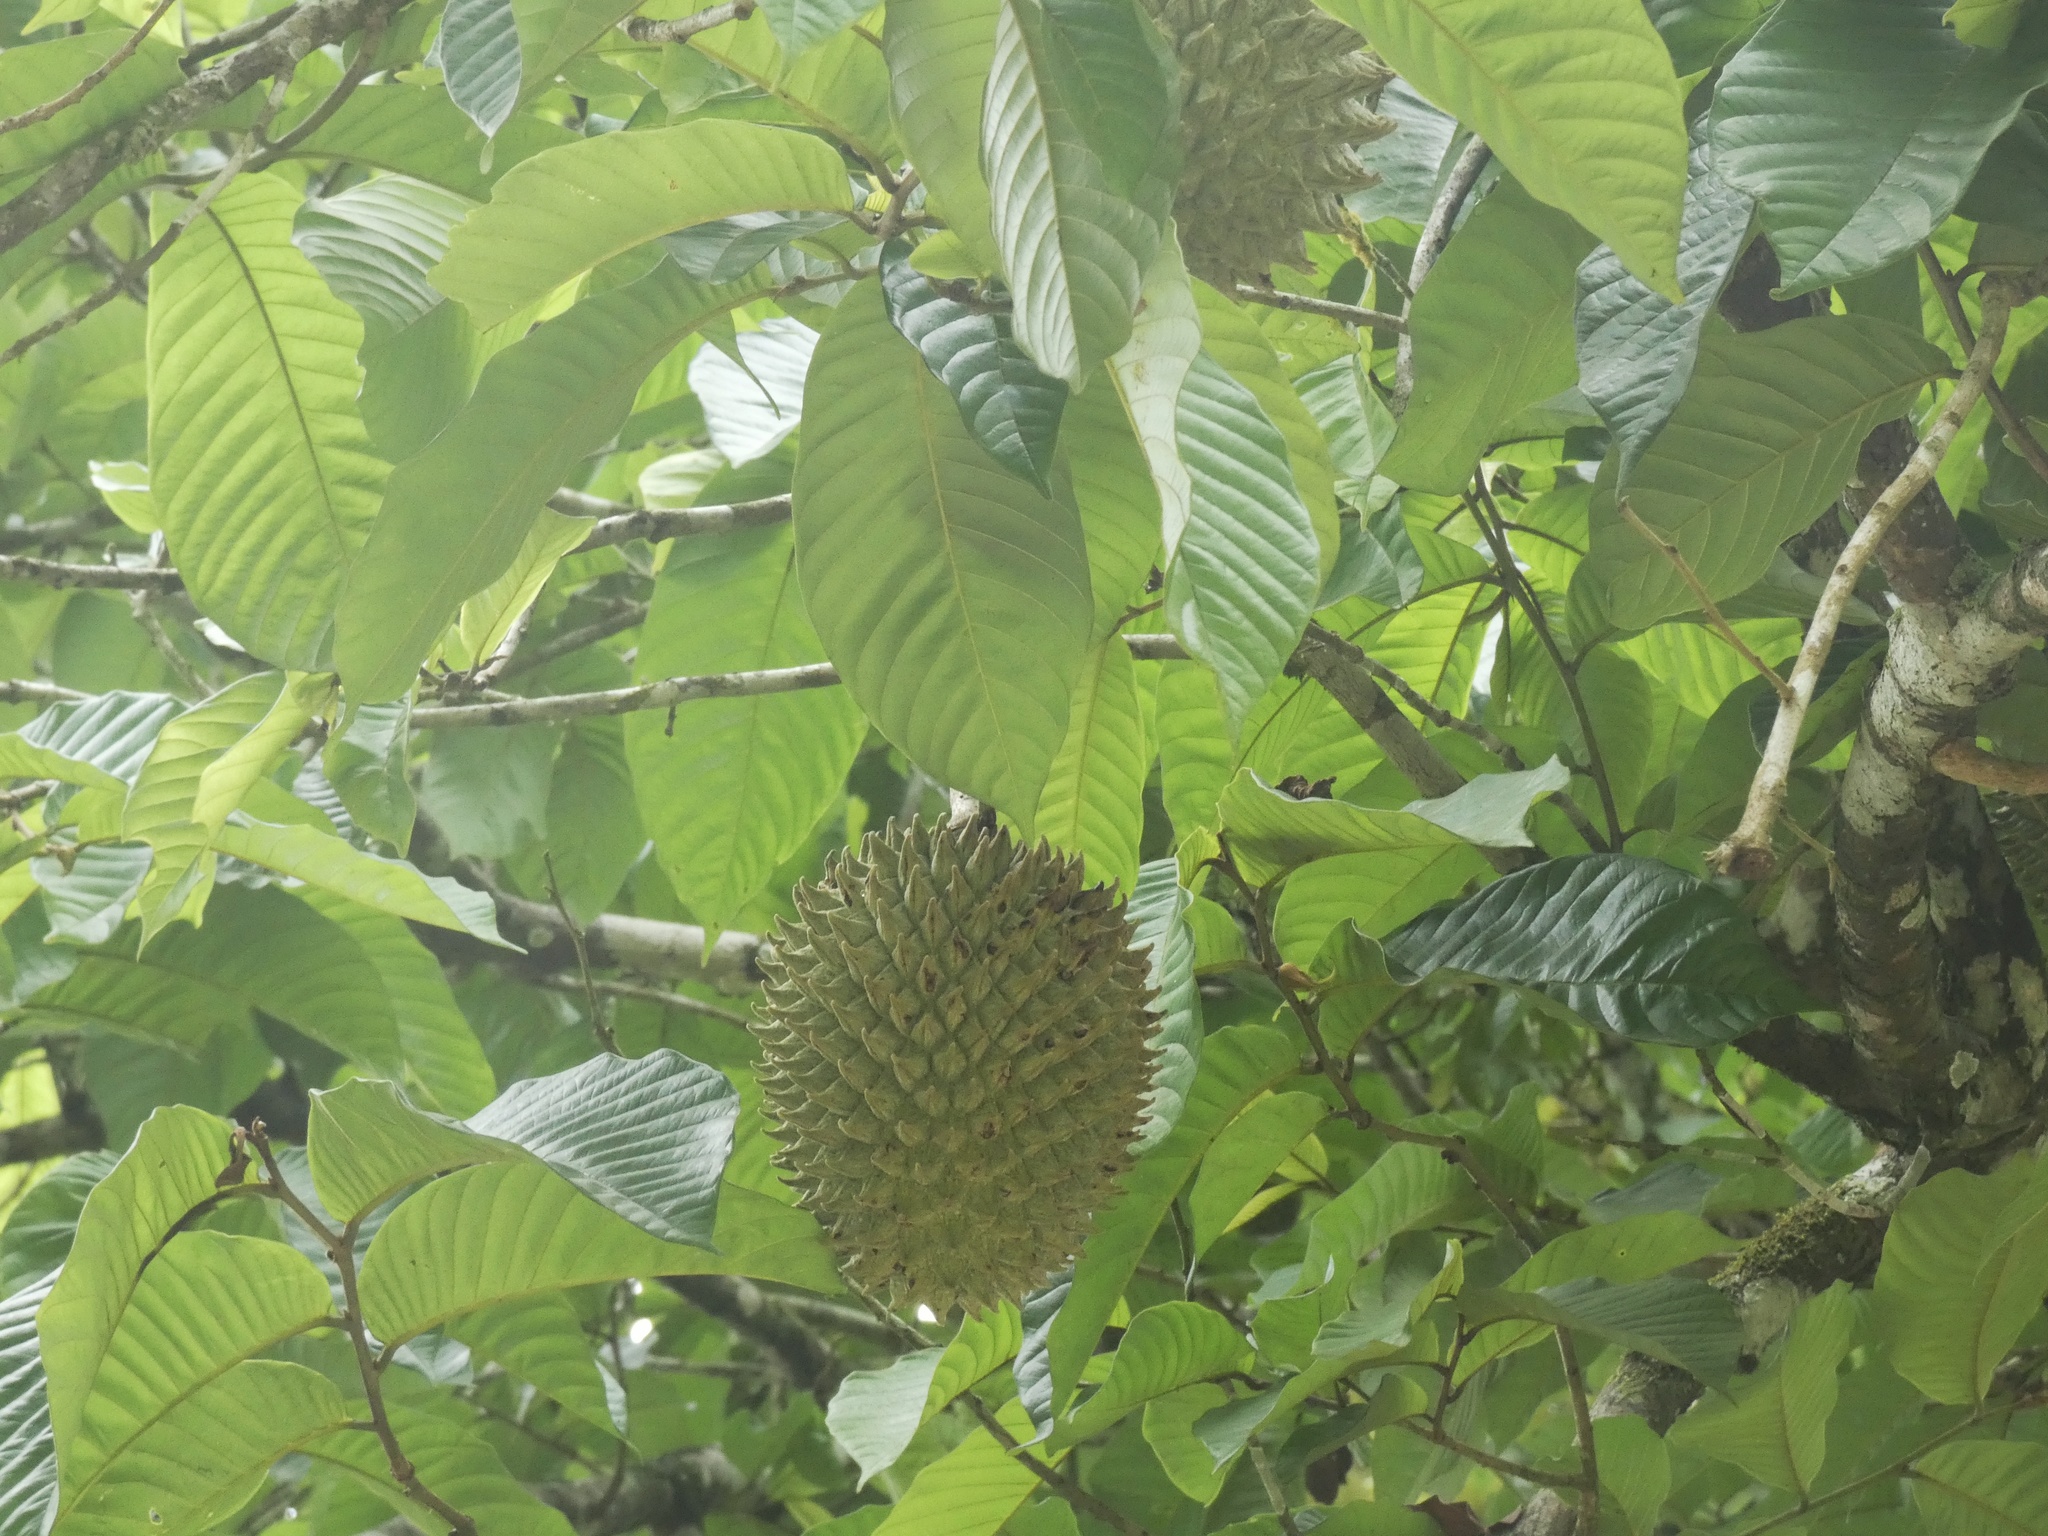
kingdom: Plantae
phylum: Tracheophyta
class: Magnoliopsida
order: Magnoliales
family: Annonaceae
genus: Annona
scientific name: Annona purpurea
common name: Negrohead
